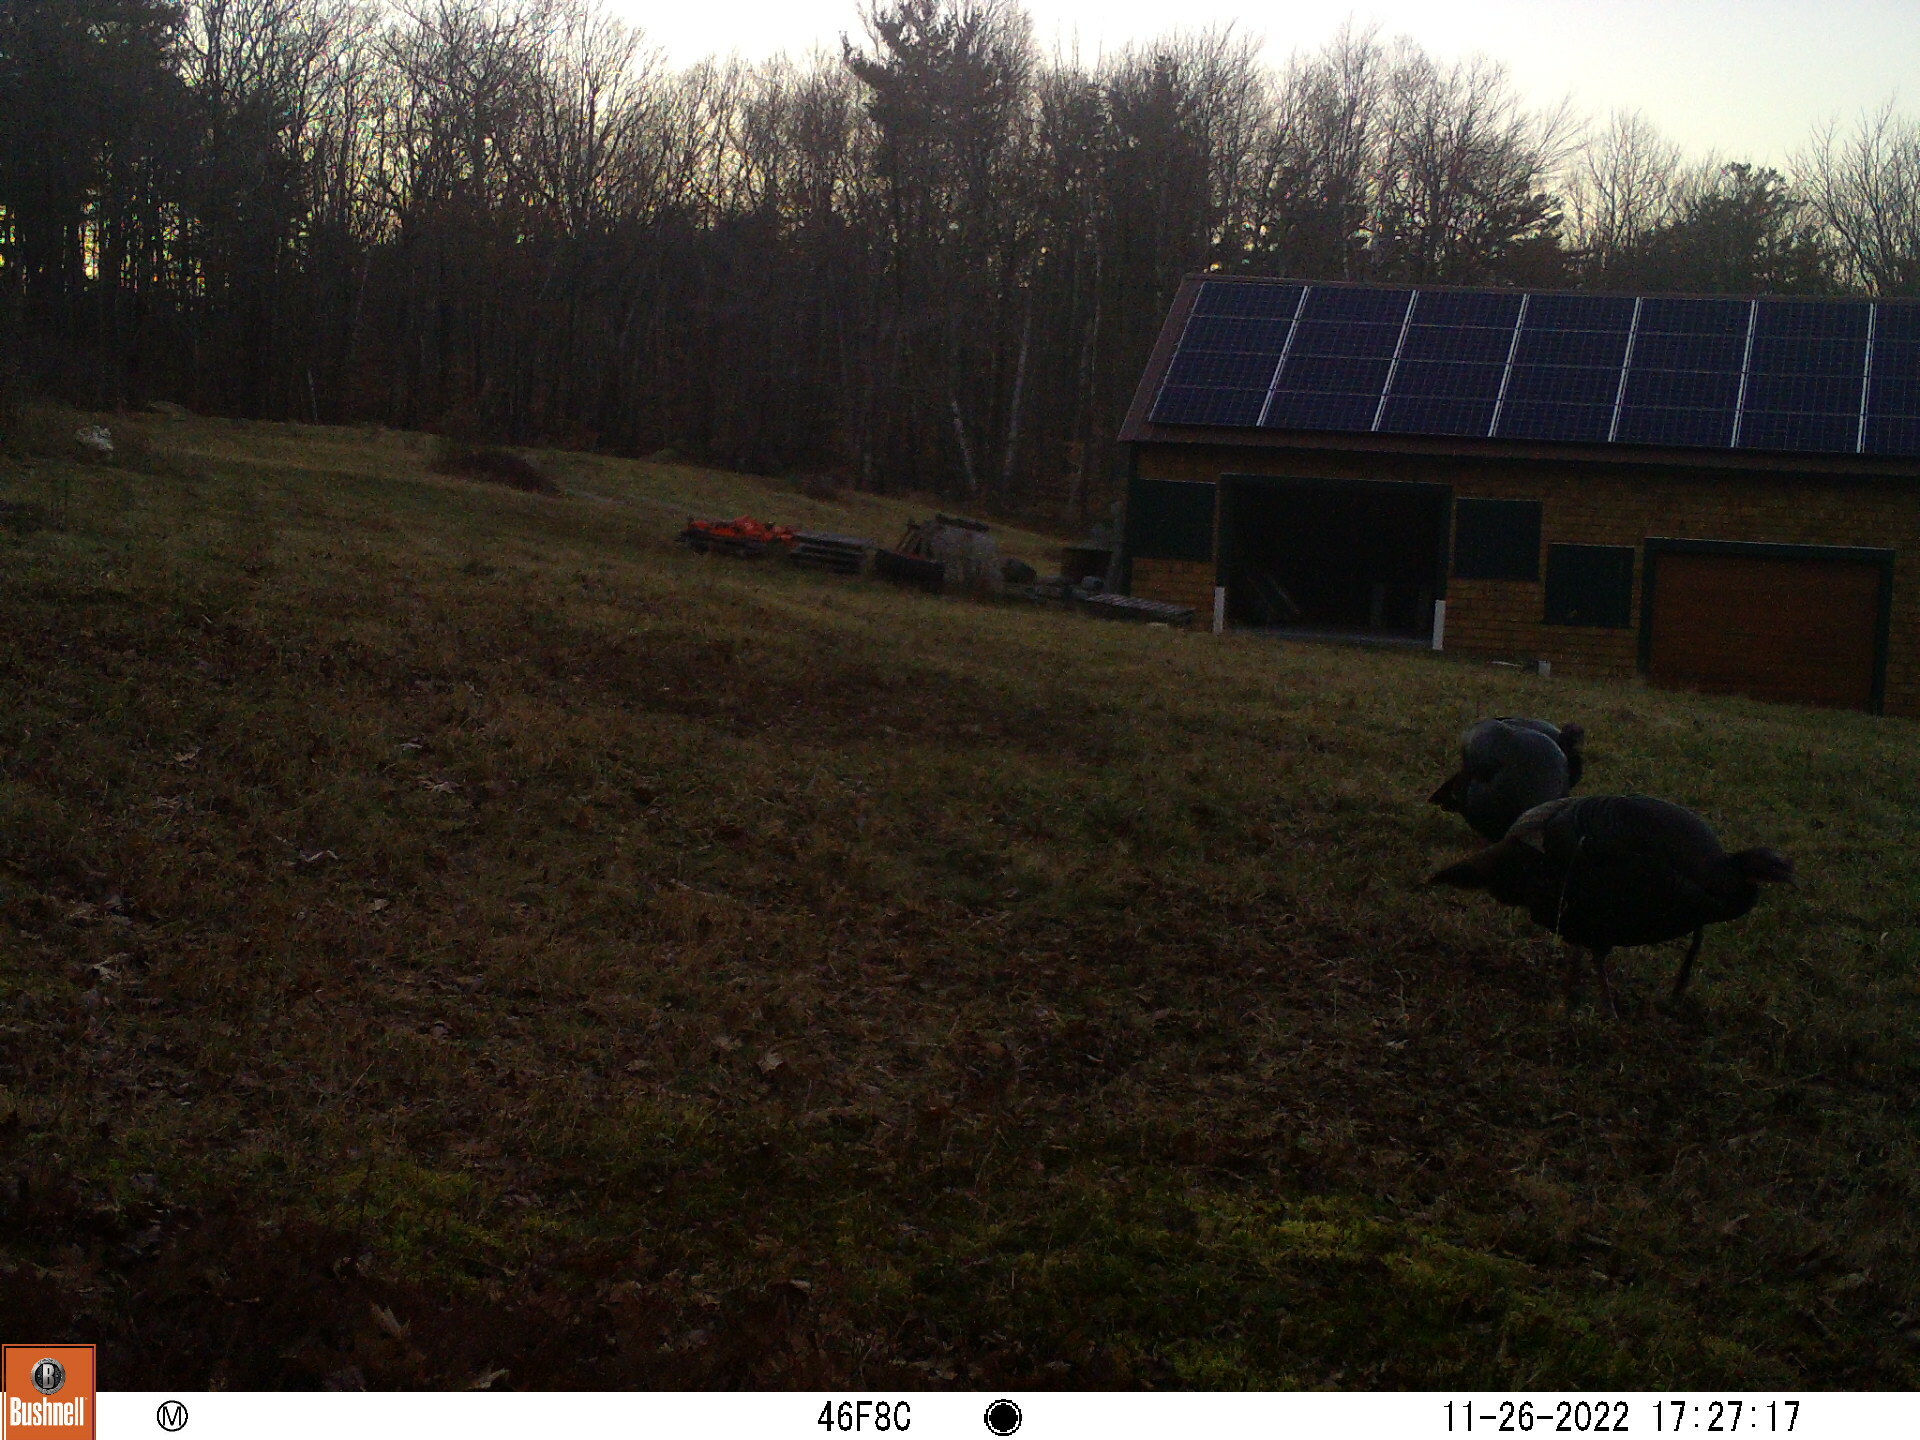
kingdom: Animalia
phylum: Chordata
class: Aves
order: Galliformes
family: Phasianidae
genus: Meleagris
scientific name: Meleagris gallopavo
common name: Wild turkey
